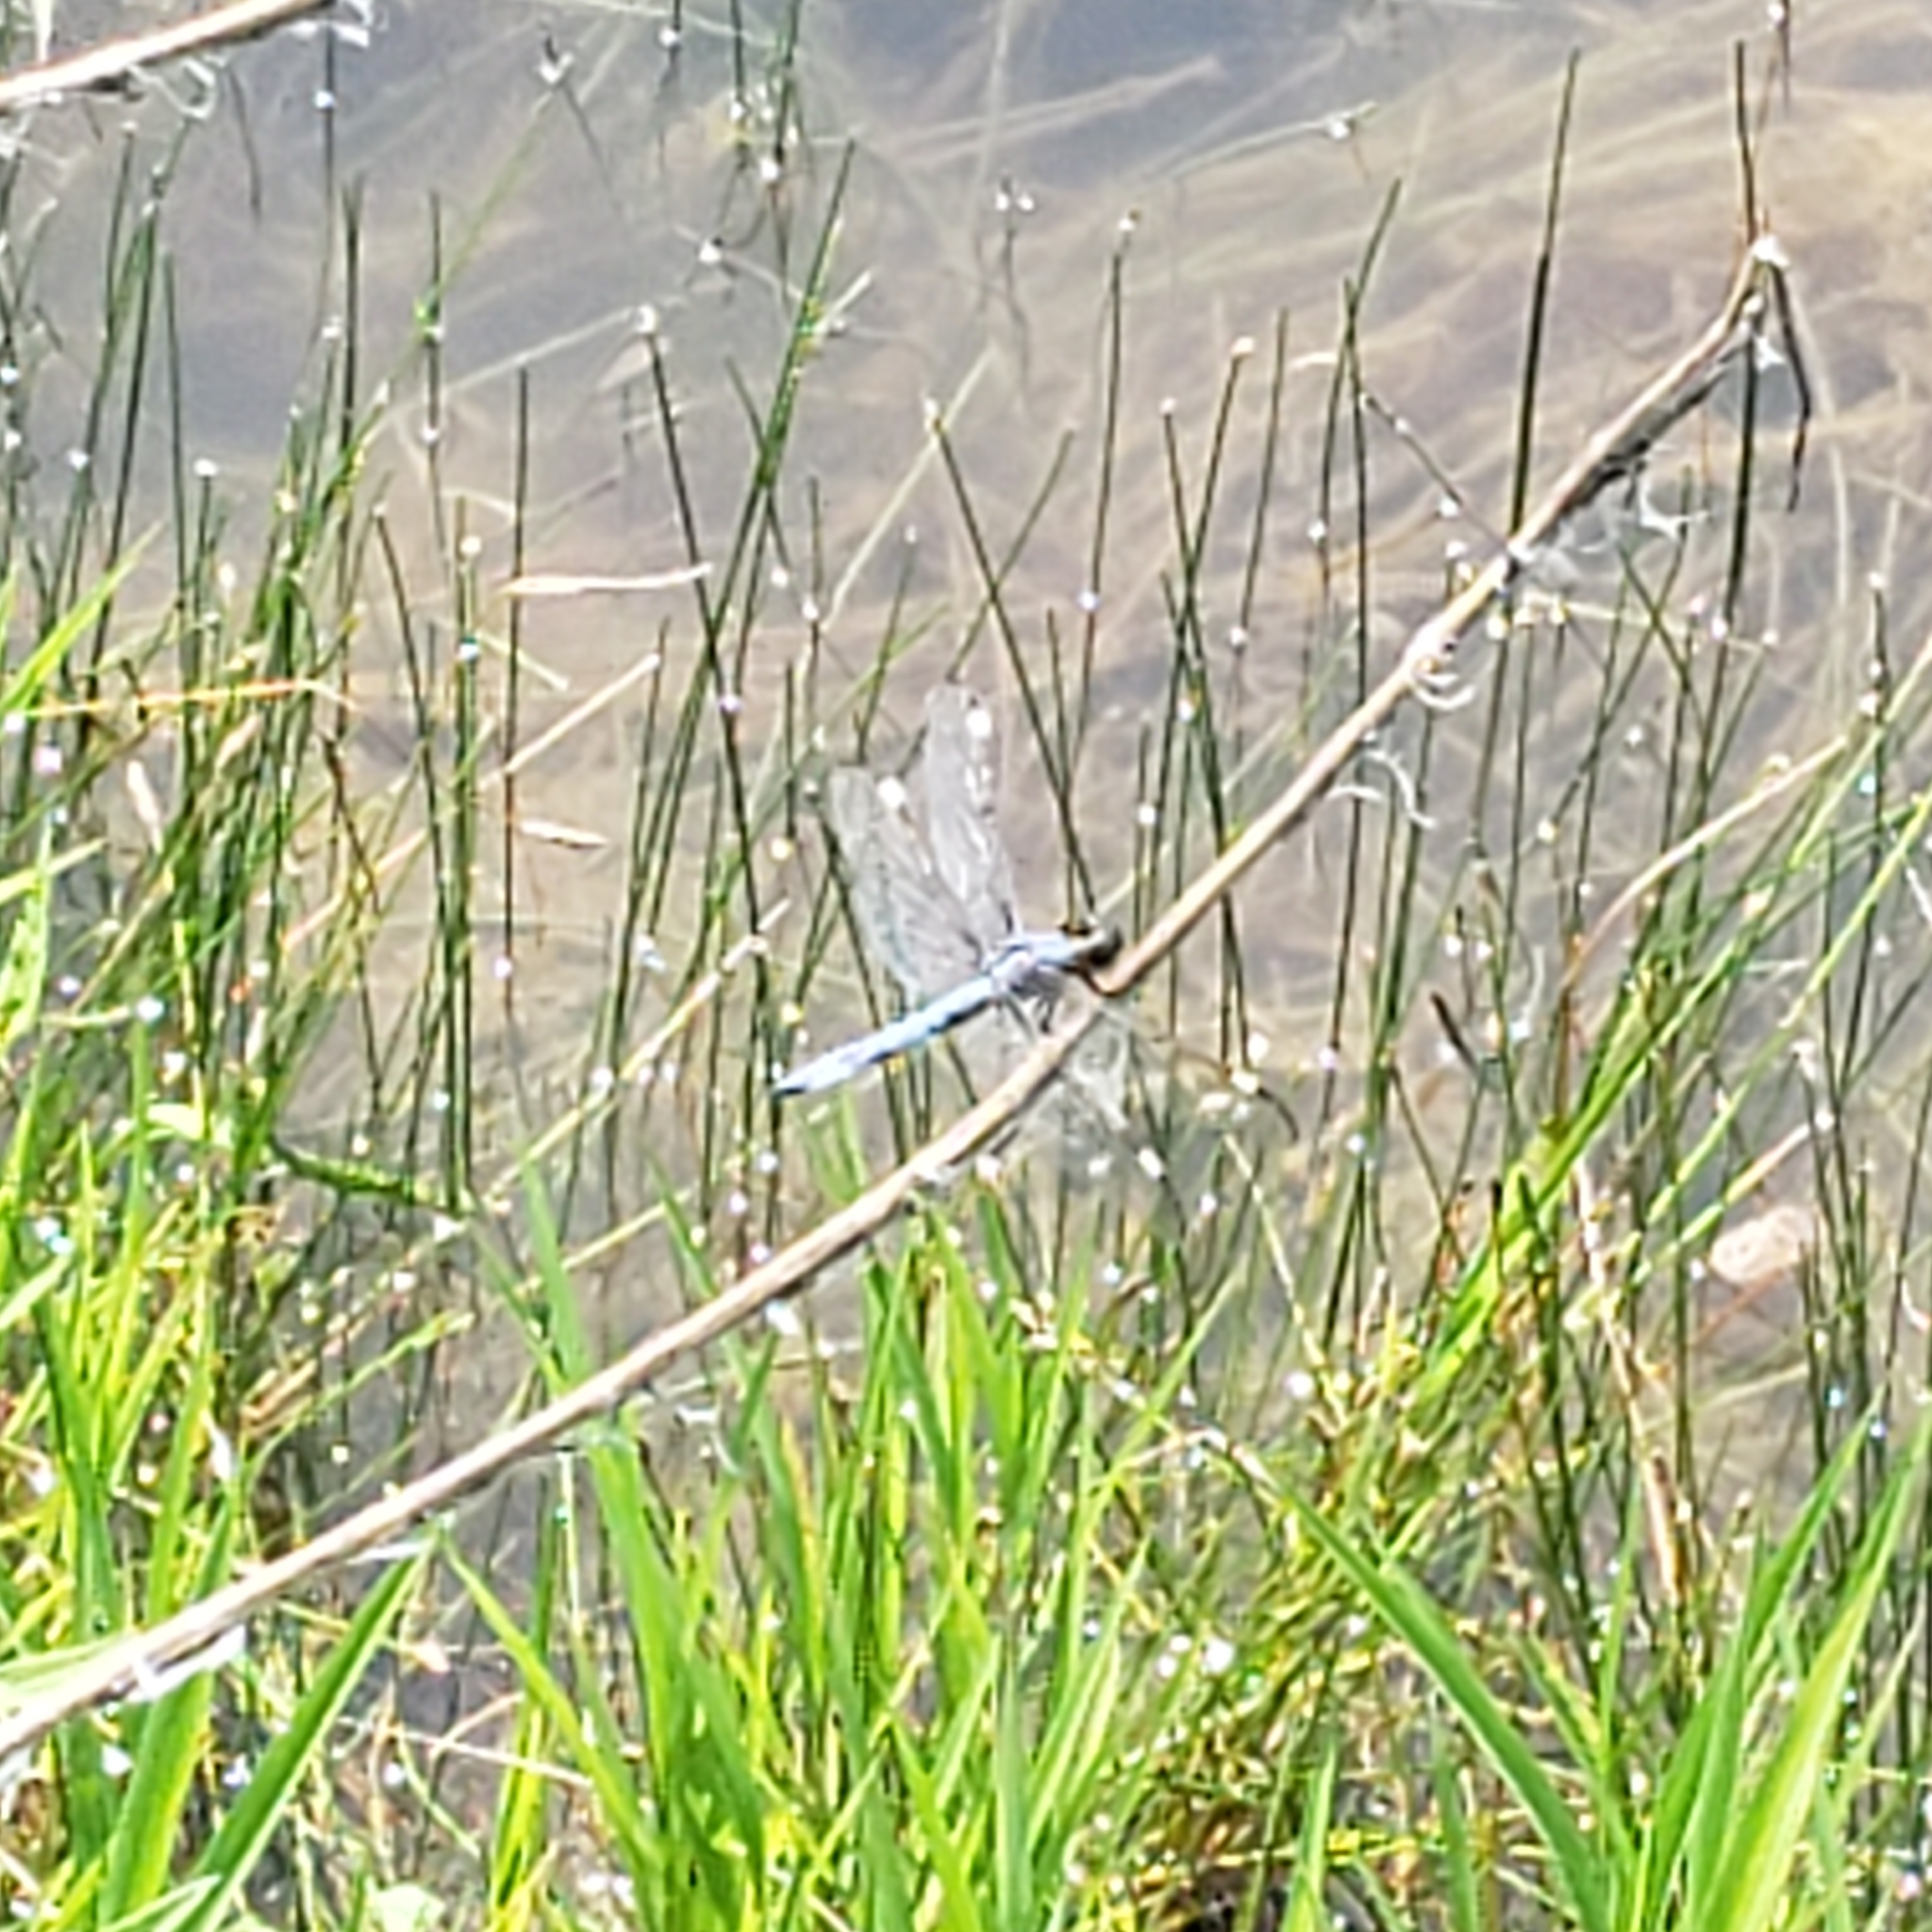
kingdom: Animalia
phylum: Arthropoda
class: Insecta
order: Odonata
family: Libellulidae
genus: Libellula
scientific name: Libellula cyanea
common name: Spangled skimmer
